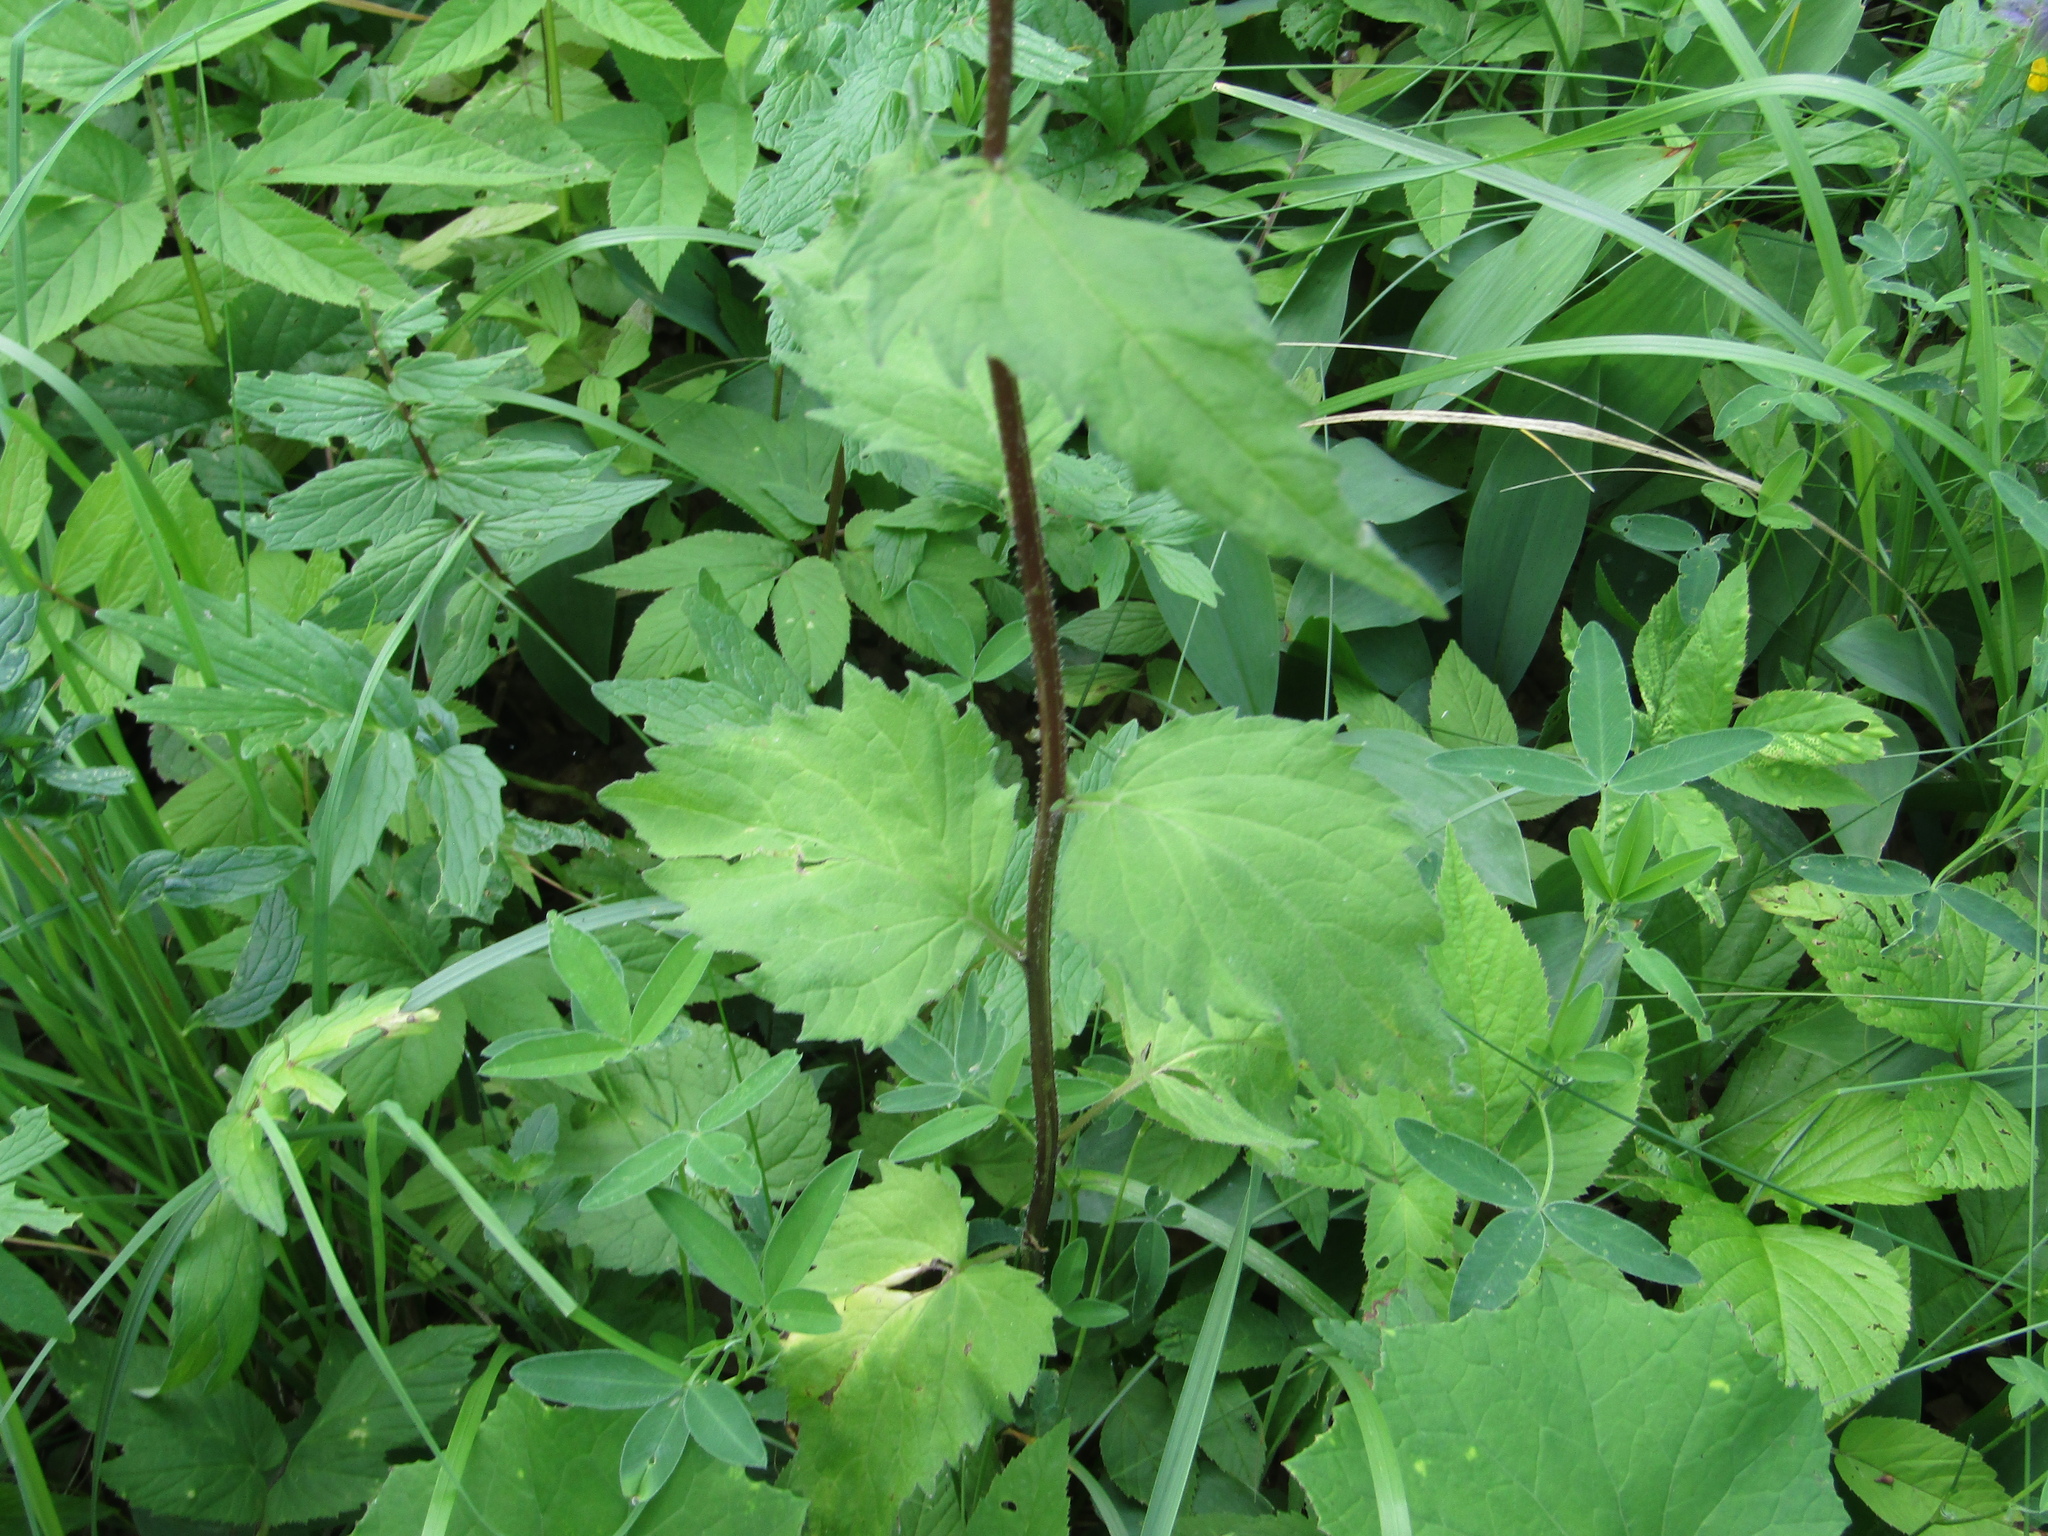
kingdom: Plantae
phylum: Tracheophyta
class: Magnoliopsida
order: Asterales
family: Campanulaceae
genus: Campanula
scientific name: Campanula trachelium
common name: Nettle-leaved bellflower
